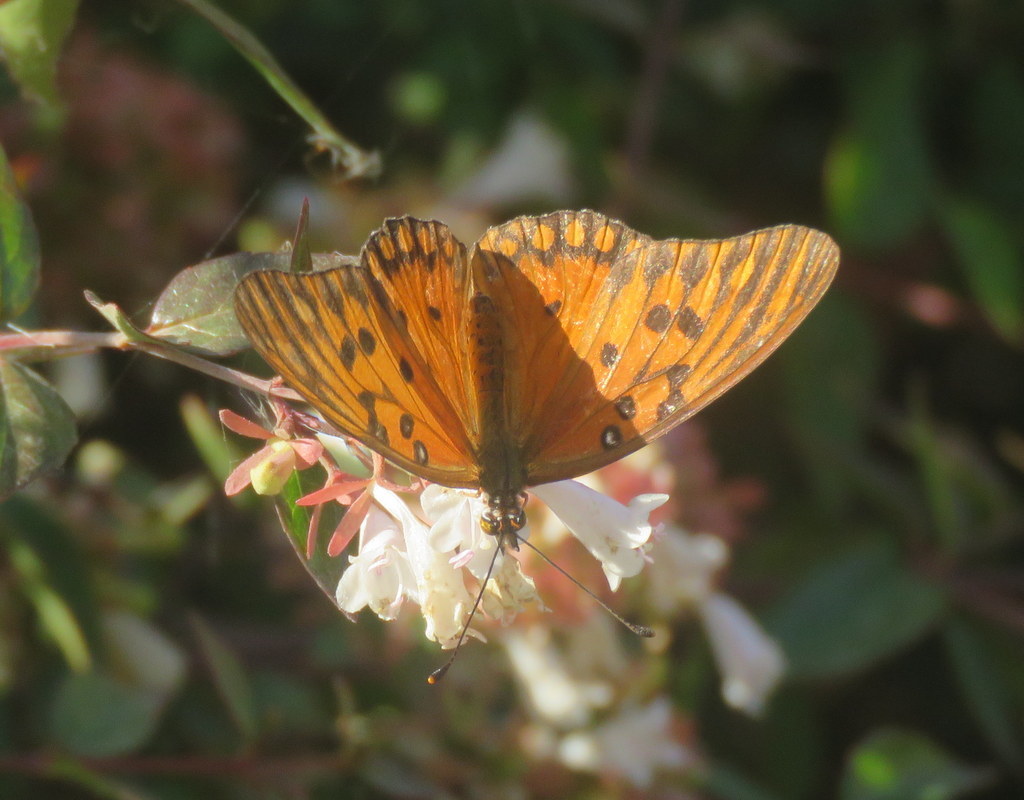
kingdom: Animalia
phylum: Arthropoda
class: Insecta
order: Lepidoptera
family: Nymphalidae
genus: Dione
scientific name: Dione vanillae
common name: Gulf fritillary
